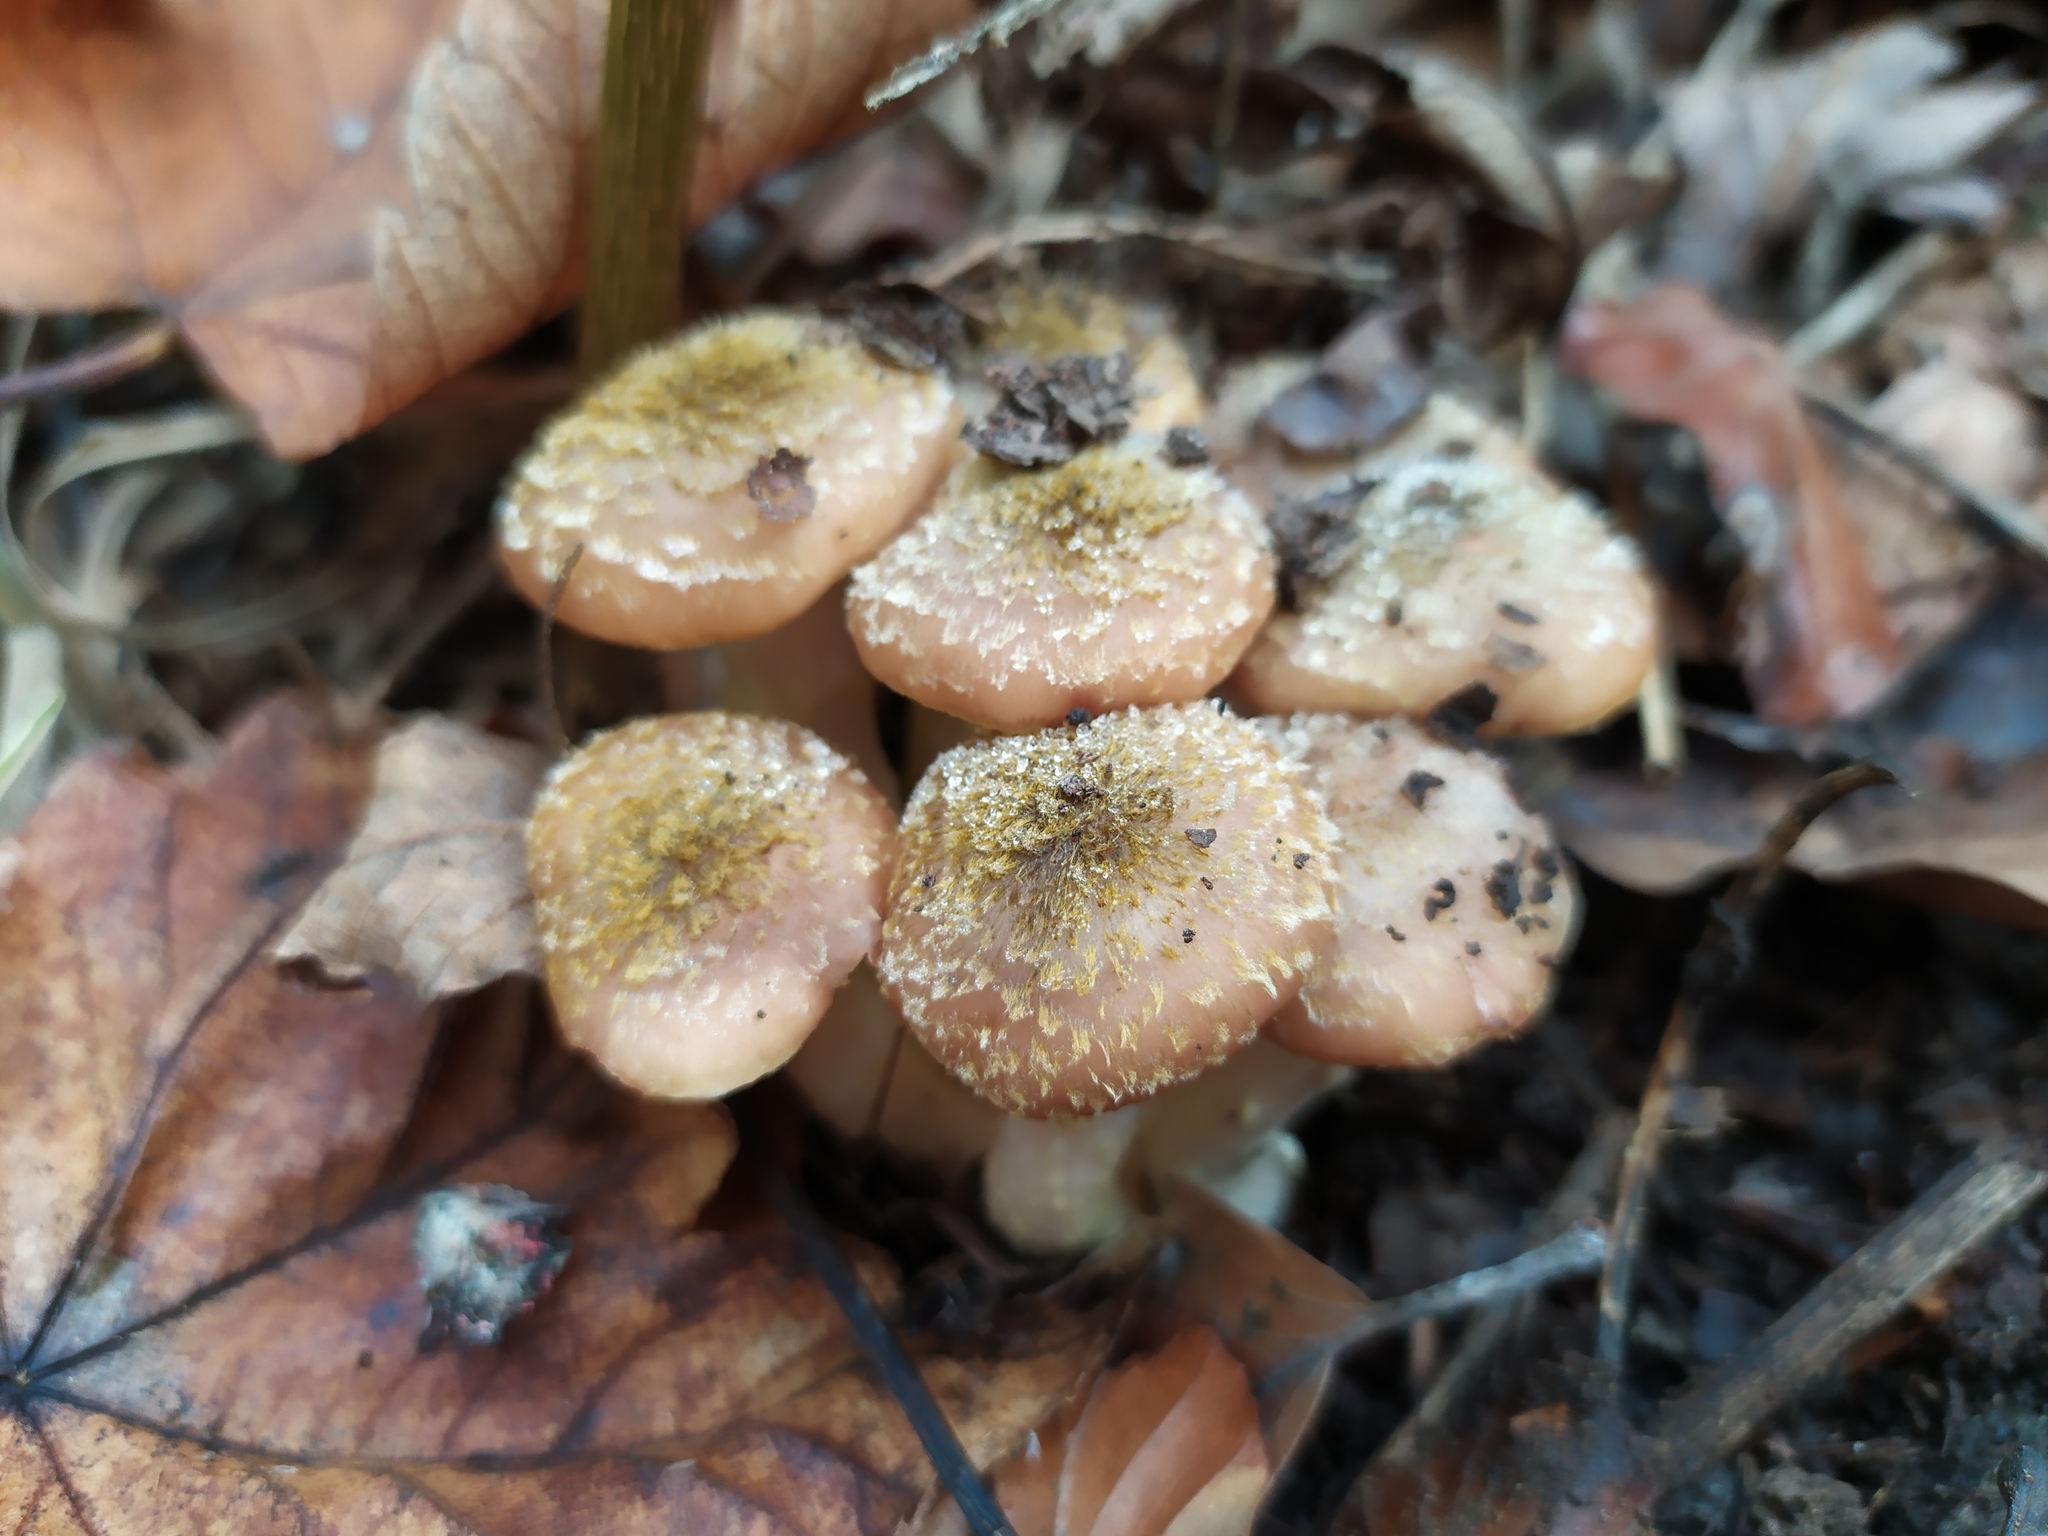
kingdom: Fungi
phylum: Basidiomycota
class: Agaricomycetes
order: Agaricales
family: Physalacriaceae
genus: Armillaria
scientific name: Armillaria ostoyae
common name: Dark honey fungus
